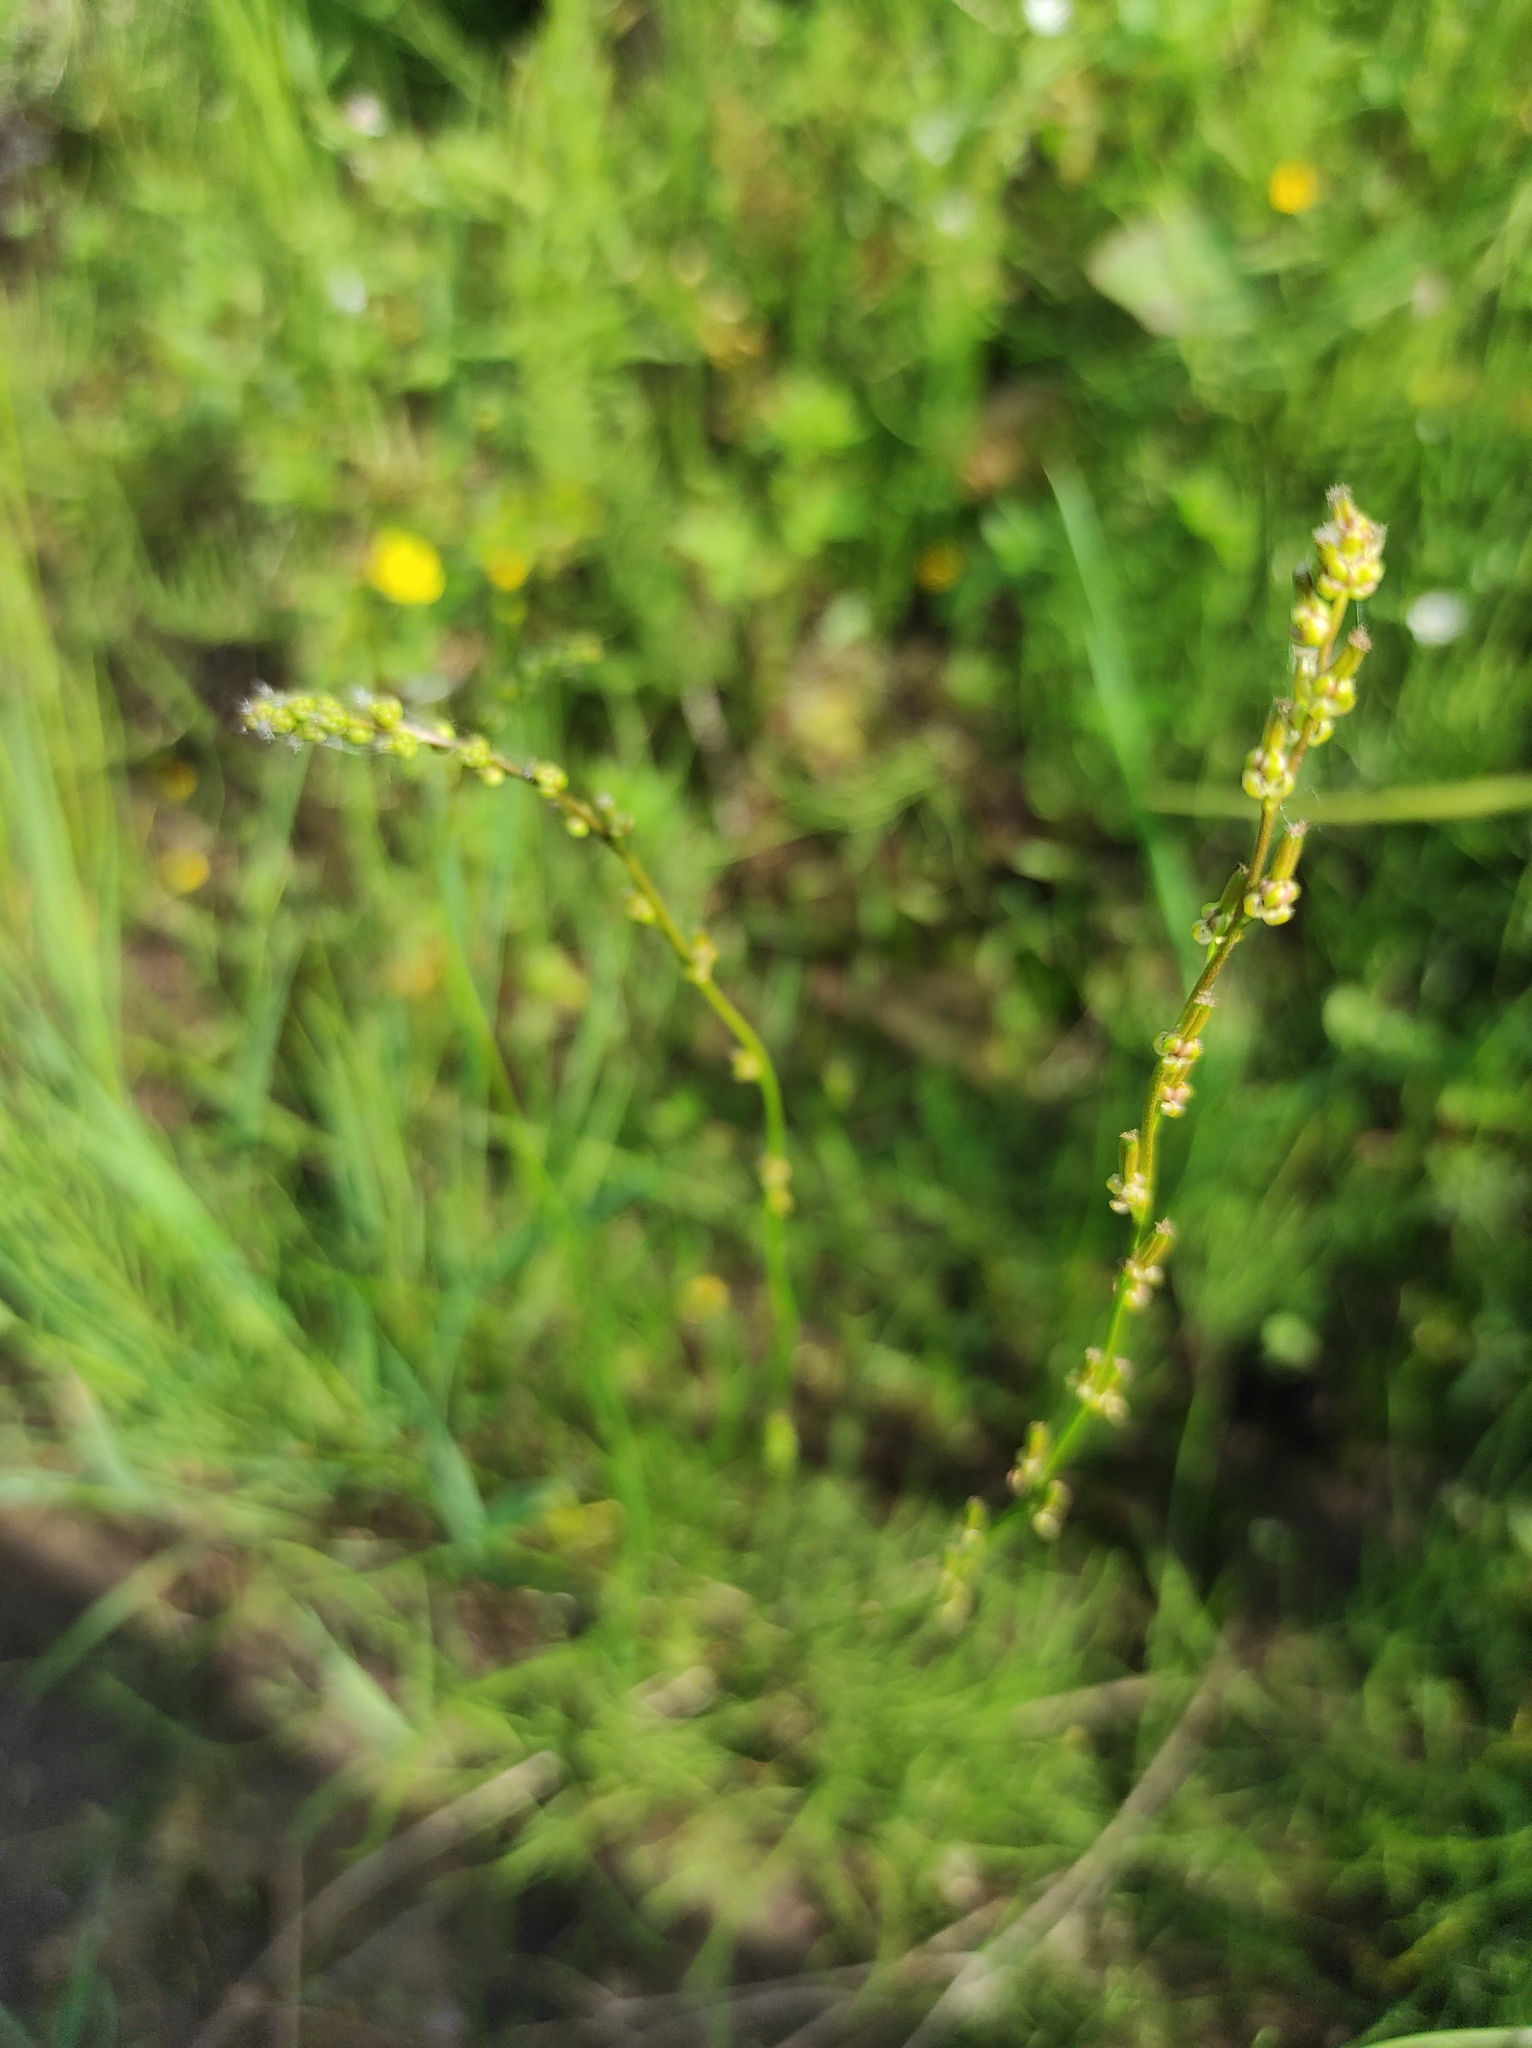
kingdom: Plantae
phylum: Tracheophyta
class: Liliopsida
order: Alismatales
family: Juncaginaceae
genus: Triglochin
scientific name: Triglochin palustris
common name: Marsh arrowgrass
